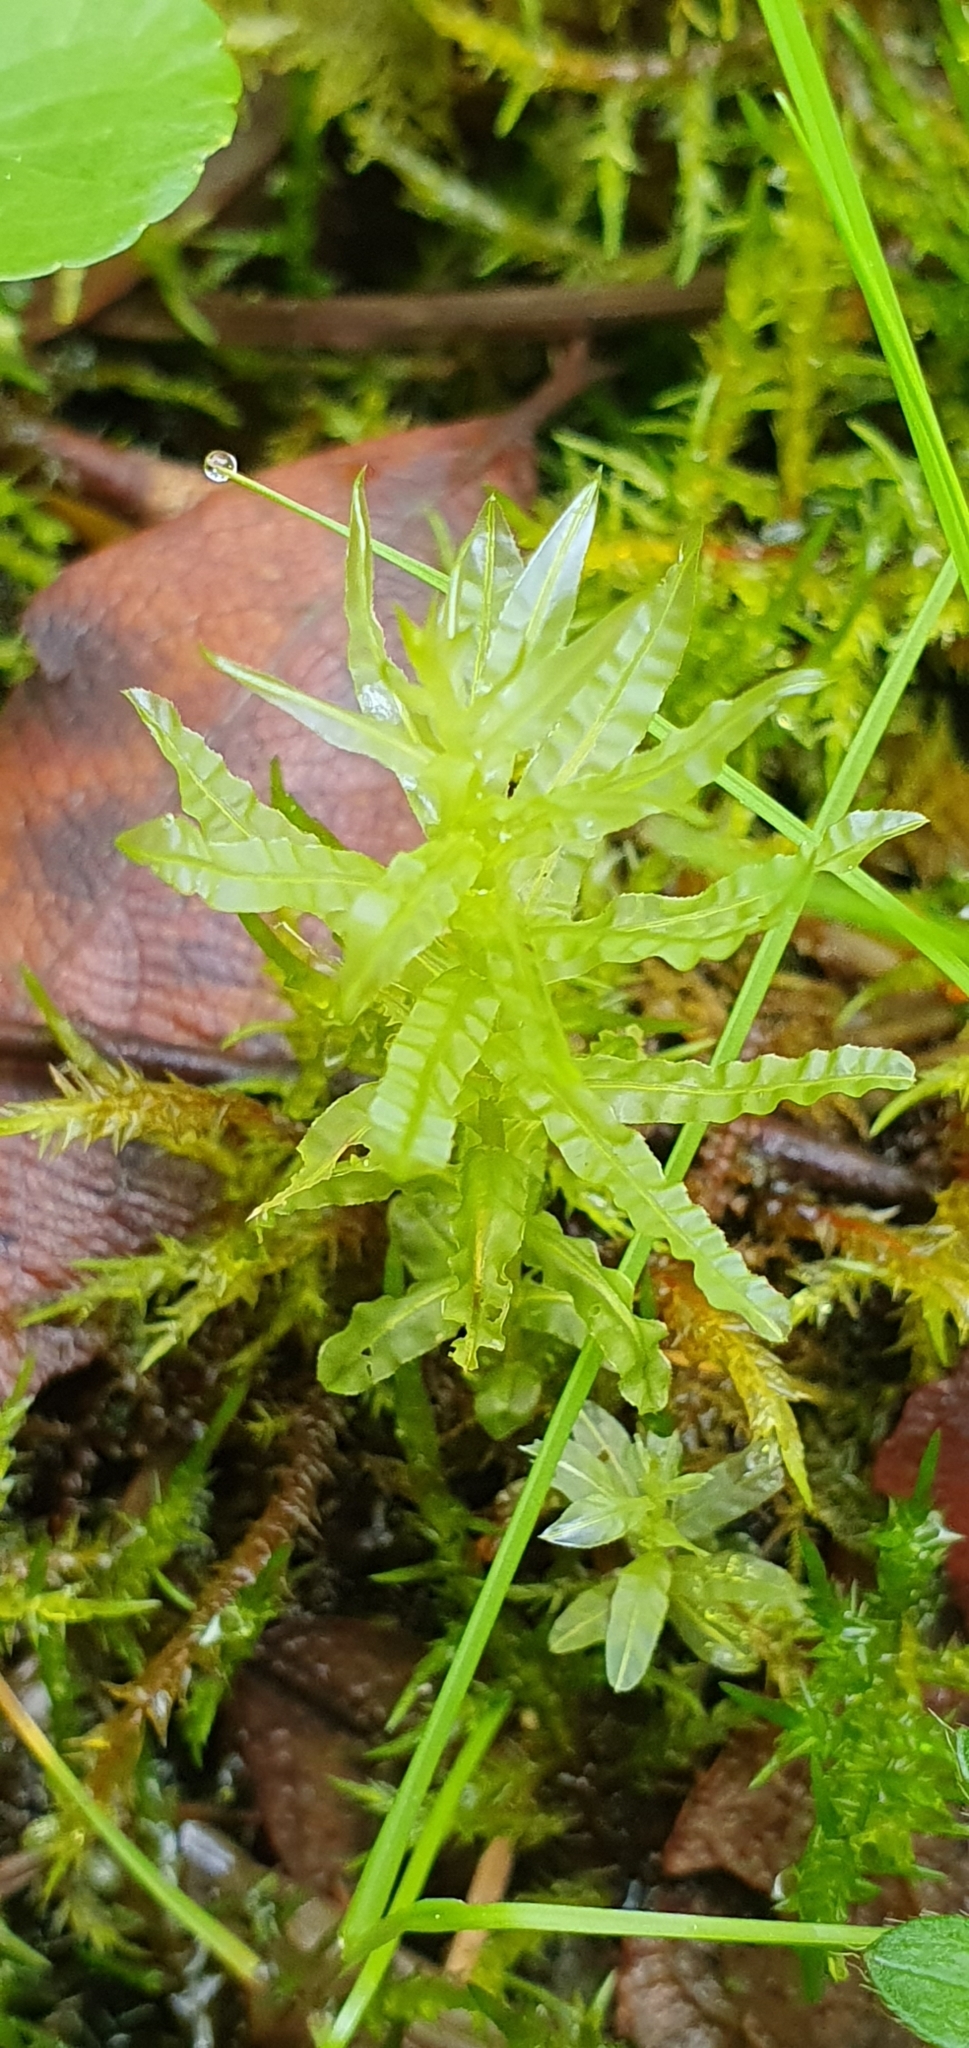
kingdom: Plantae
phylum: Bryophyta
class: Bryopsida
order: Bryales
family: Mniaceae
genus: Plagiomnium
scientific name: Plagiomnium undulatum
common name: Hart's-tongue thyme-moss
